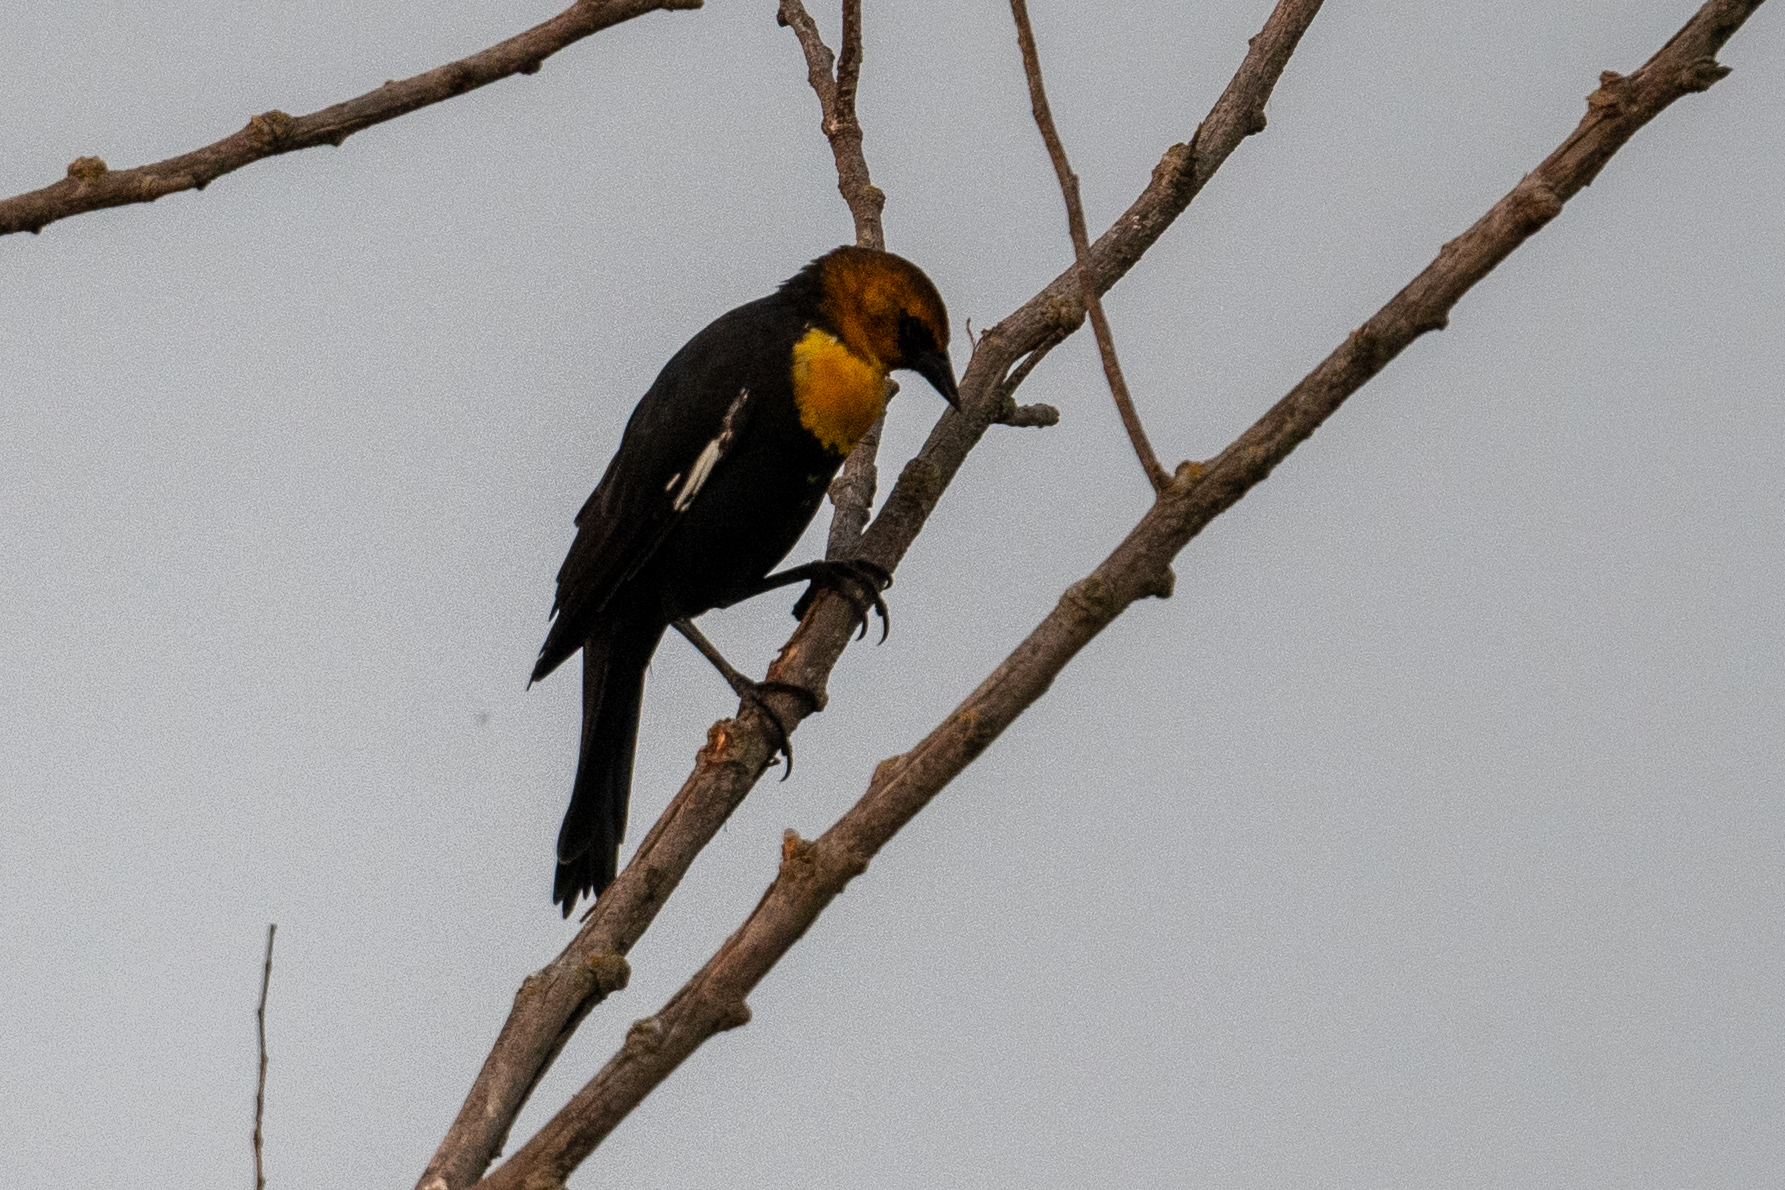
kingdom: Animalia
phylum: Chordata
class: Aves
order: Passeriformes
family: Icteridae
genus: Xanthocephalus
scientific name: Xanthocephalus xanthocephalus
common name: Yellow-headed blackbird
